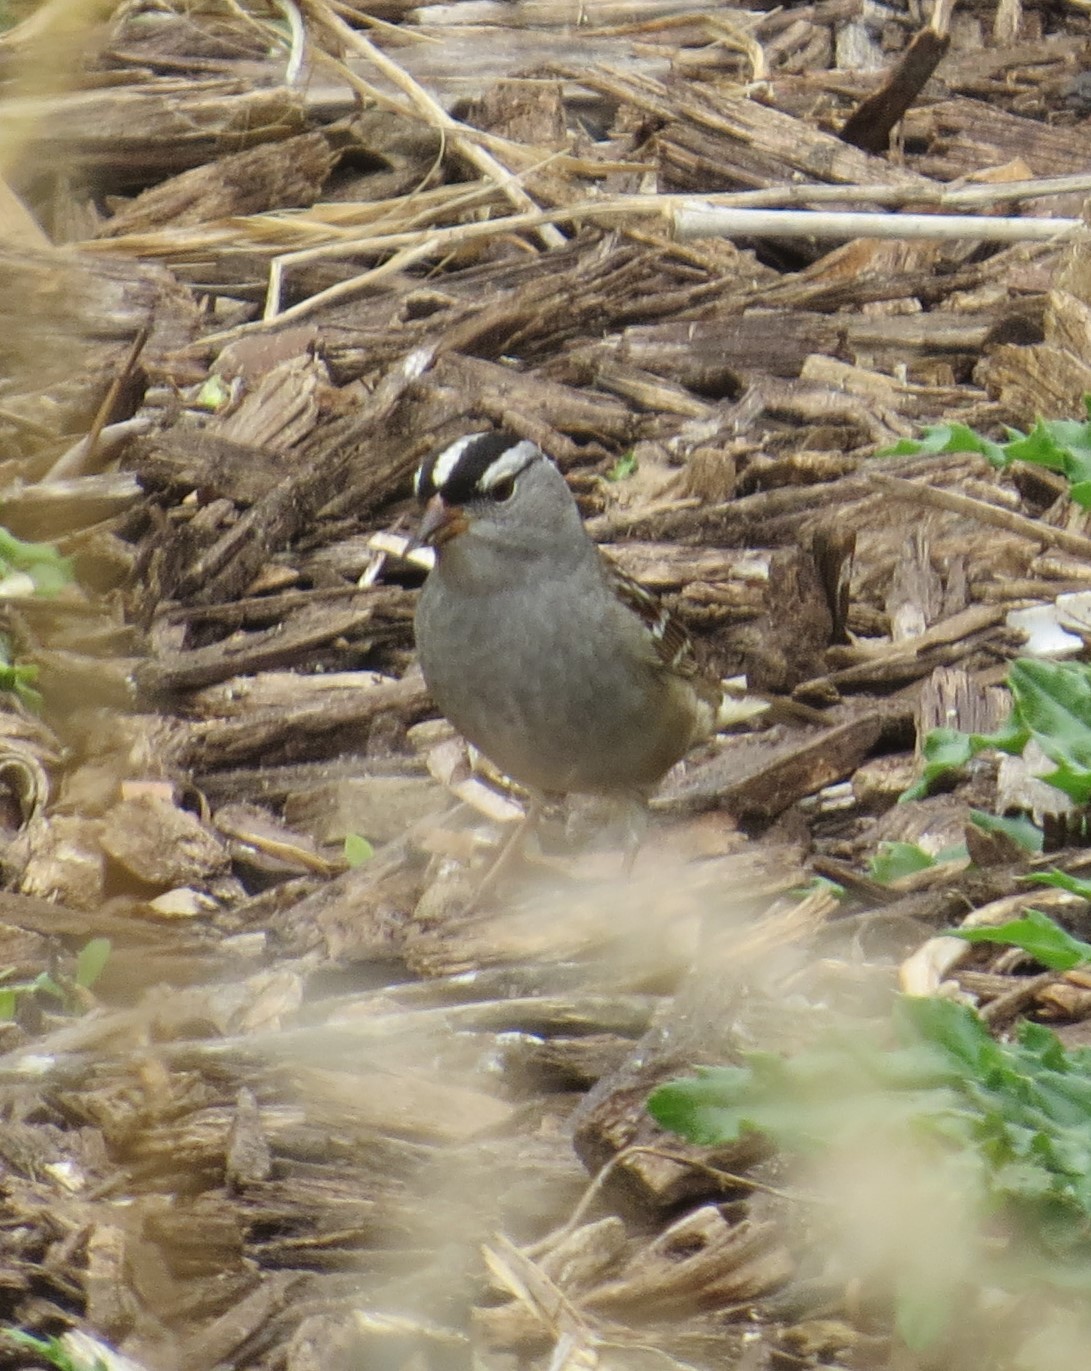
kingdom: Animalia
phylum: Chordata
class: Aves
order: Passeriformes
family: Passerellidae
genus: Zonotrichia
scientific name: Zonotrichia leucophrys
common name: White-crowned sparrow
